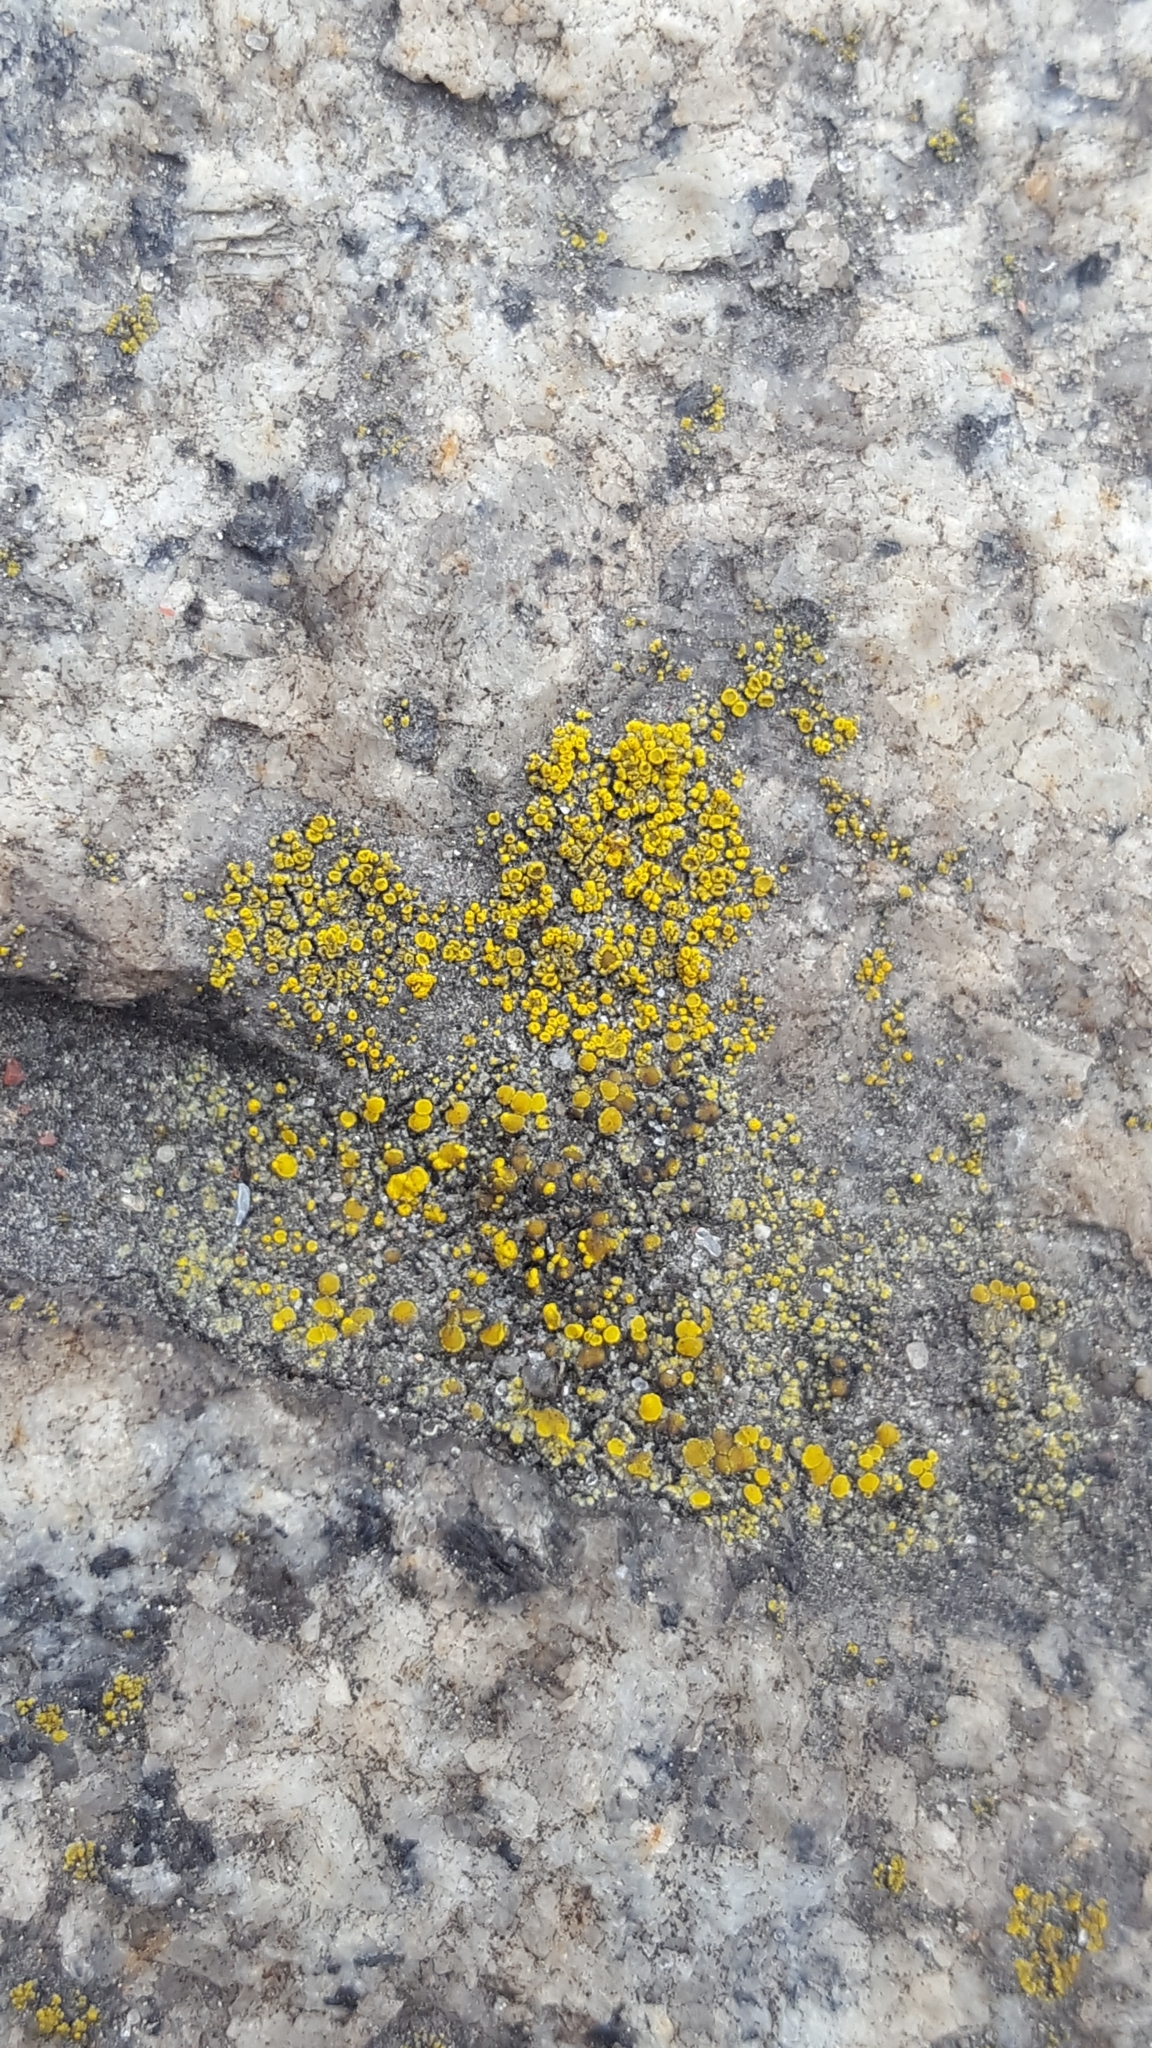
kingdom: Fungi
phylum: Ascomycota
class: Candelariomycetes
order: Candelariales
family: Candelariaceae
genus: Candelariella
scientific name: Candelariella vitellina
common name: Common goldspeck
